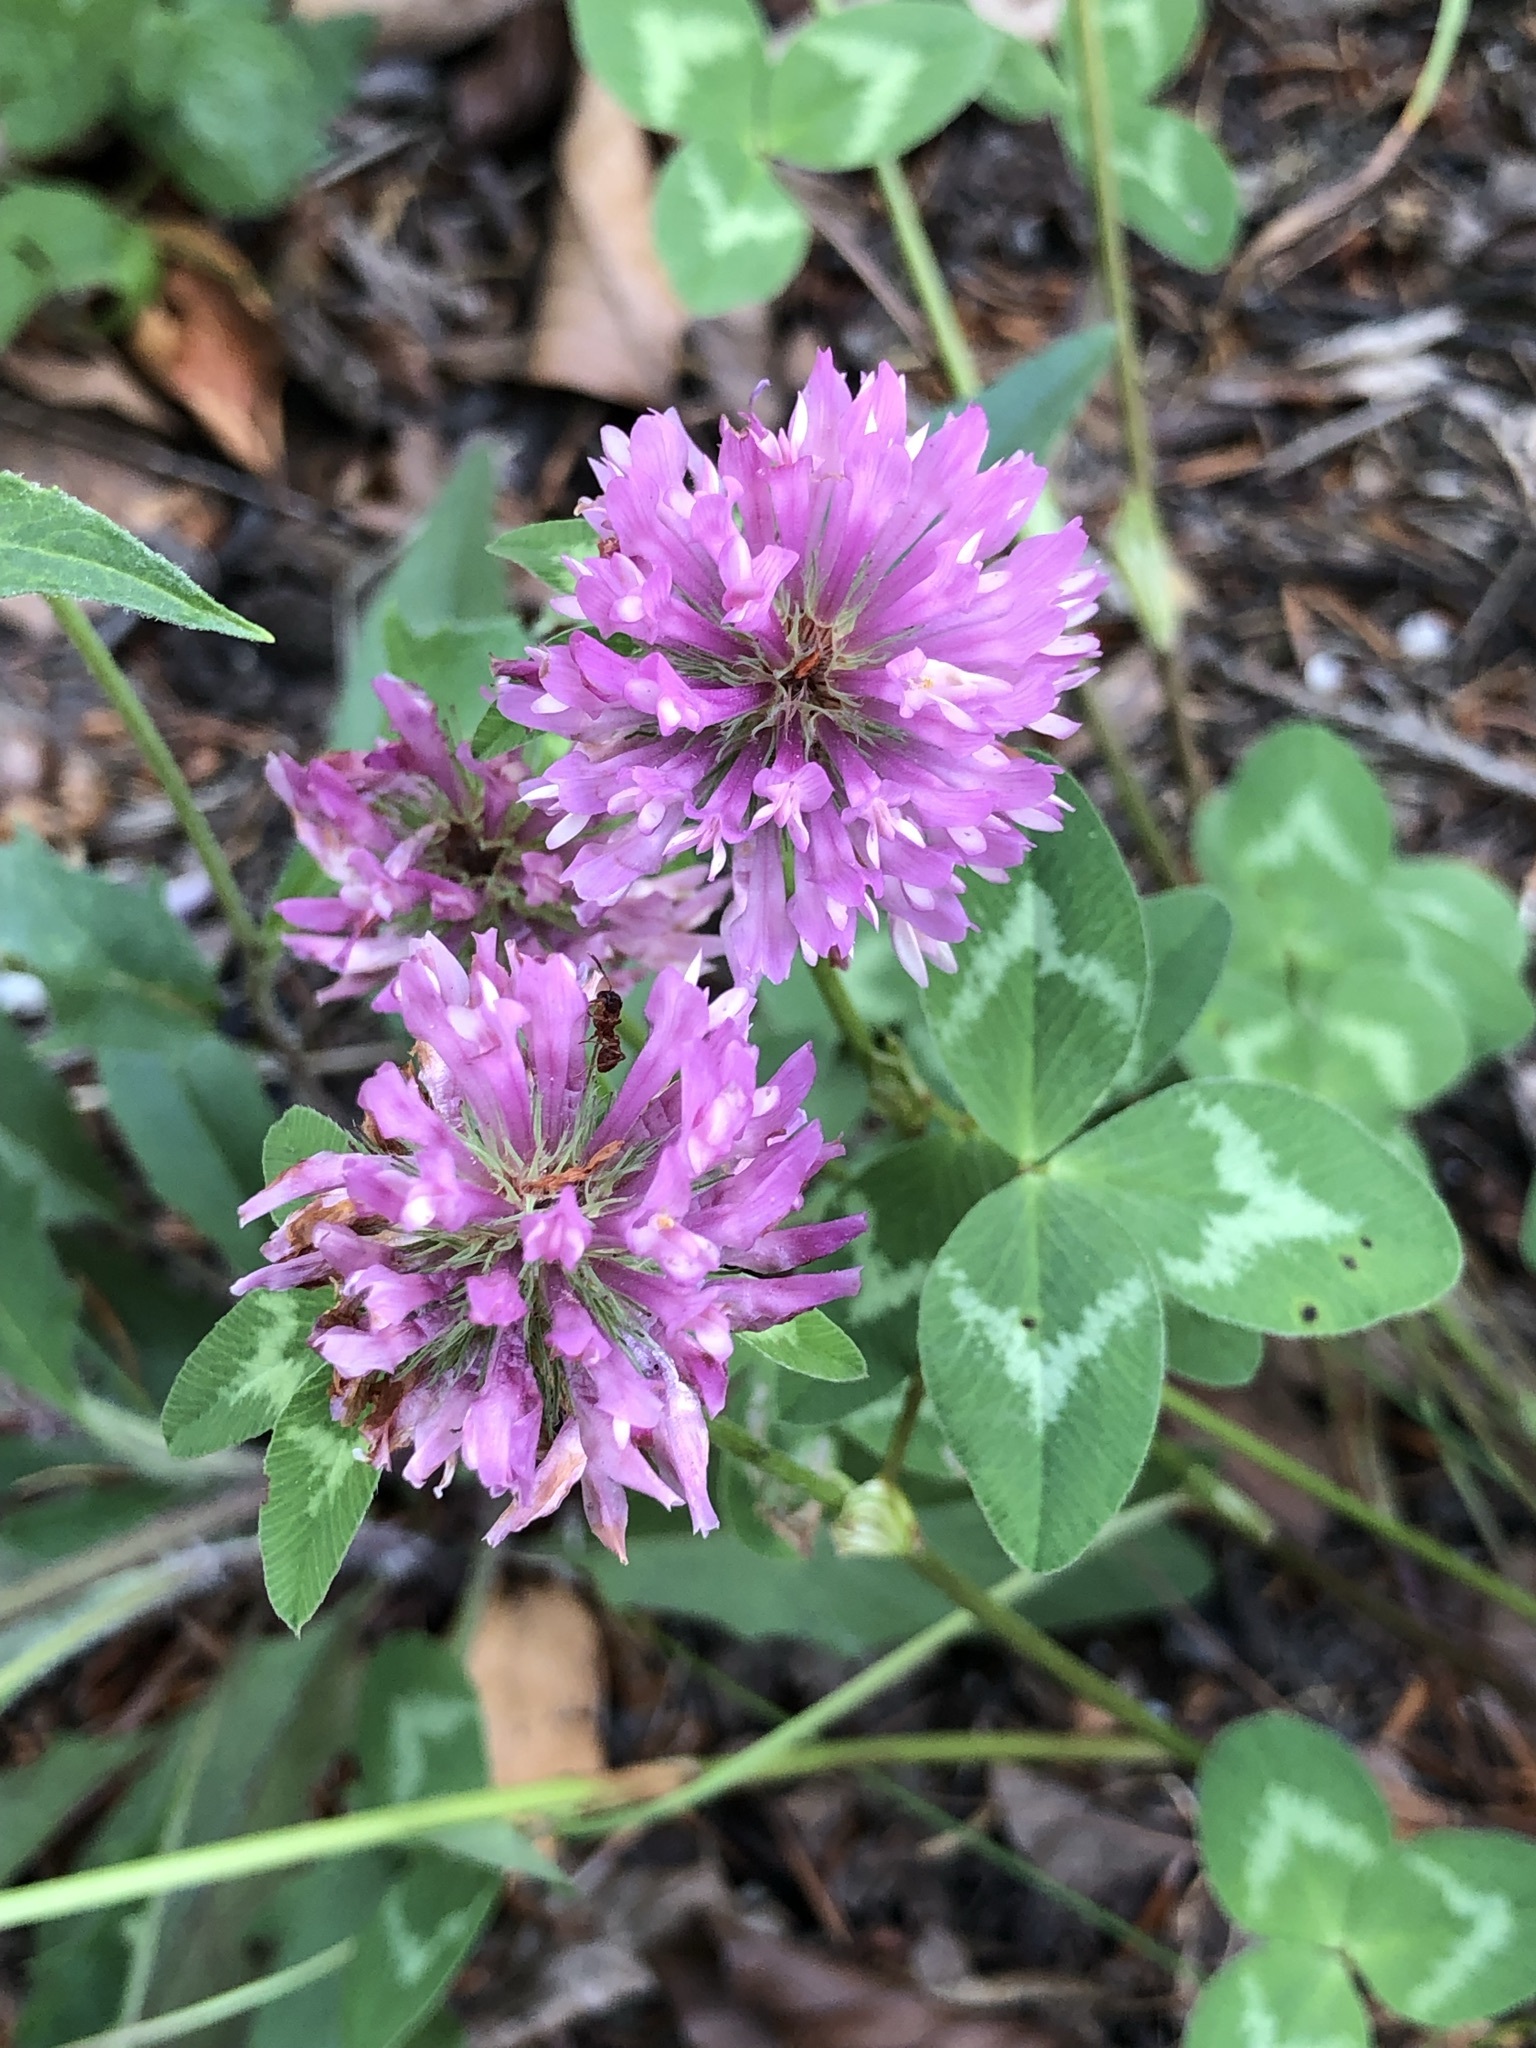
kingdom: Plantae
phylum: Tracheophyta
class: Magnoliopsida
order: Fabales
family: Fabaceae
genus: Trifolium
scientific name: Trifolium pratense
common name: Red clover
